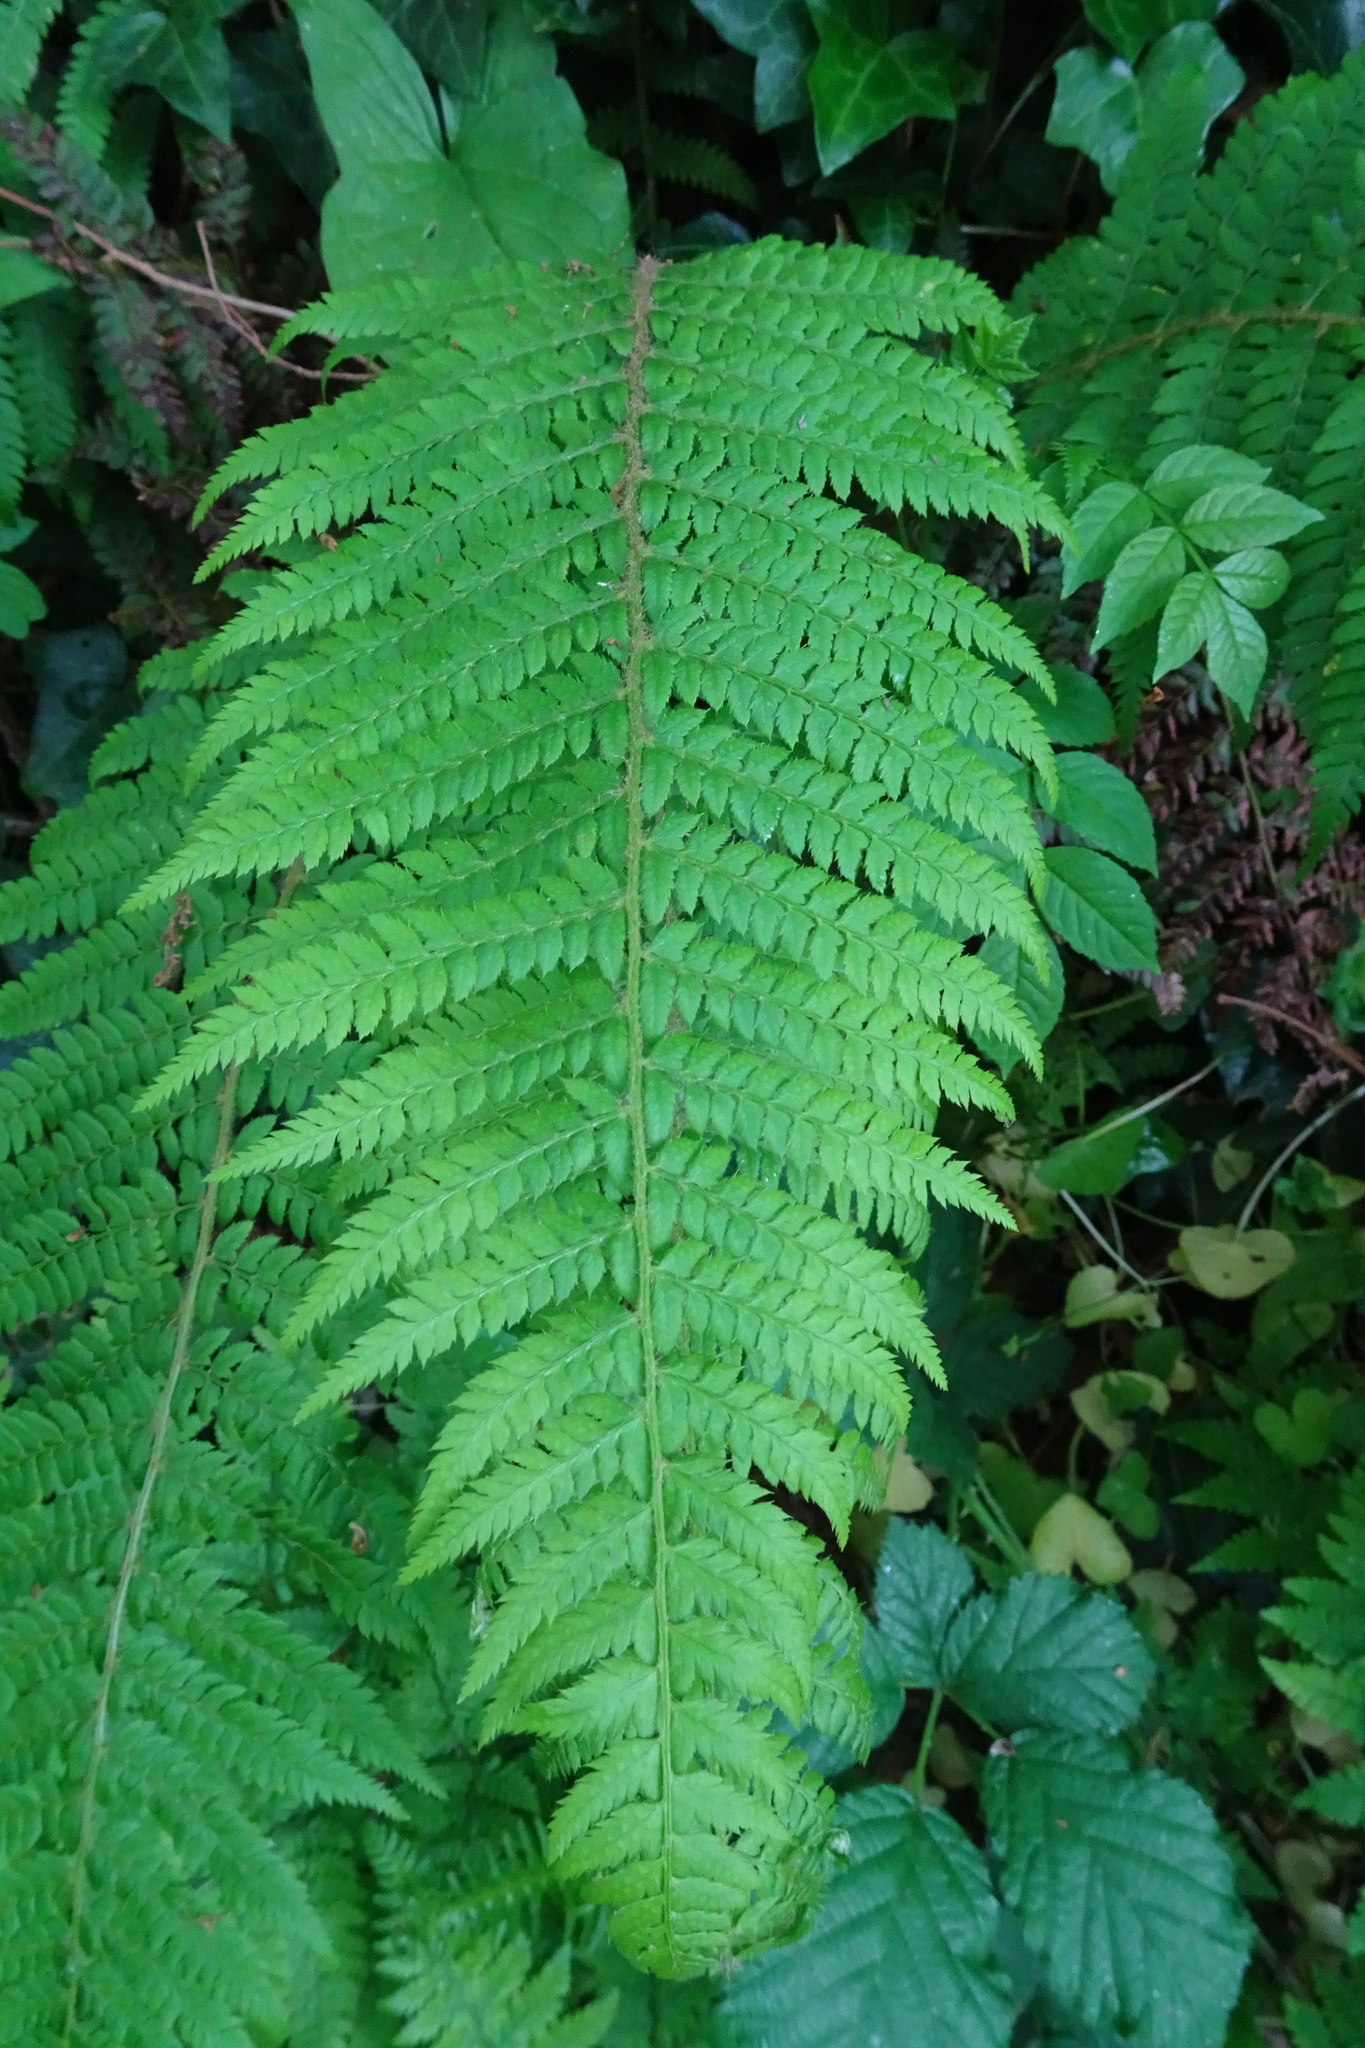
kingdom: Plantae
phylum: Tracheophyta
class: Polypodiopsida
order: Polypodiales
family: Dryopteridaceae
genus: Polystichum
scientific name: Polystichum setiferum
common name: Soft shield-fern
